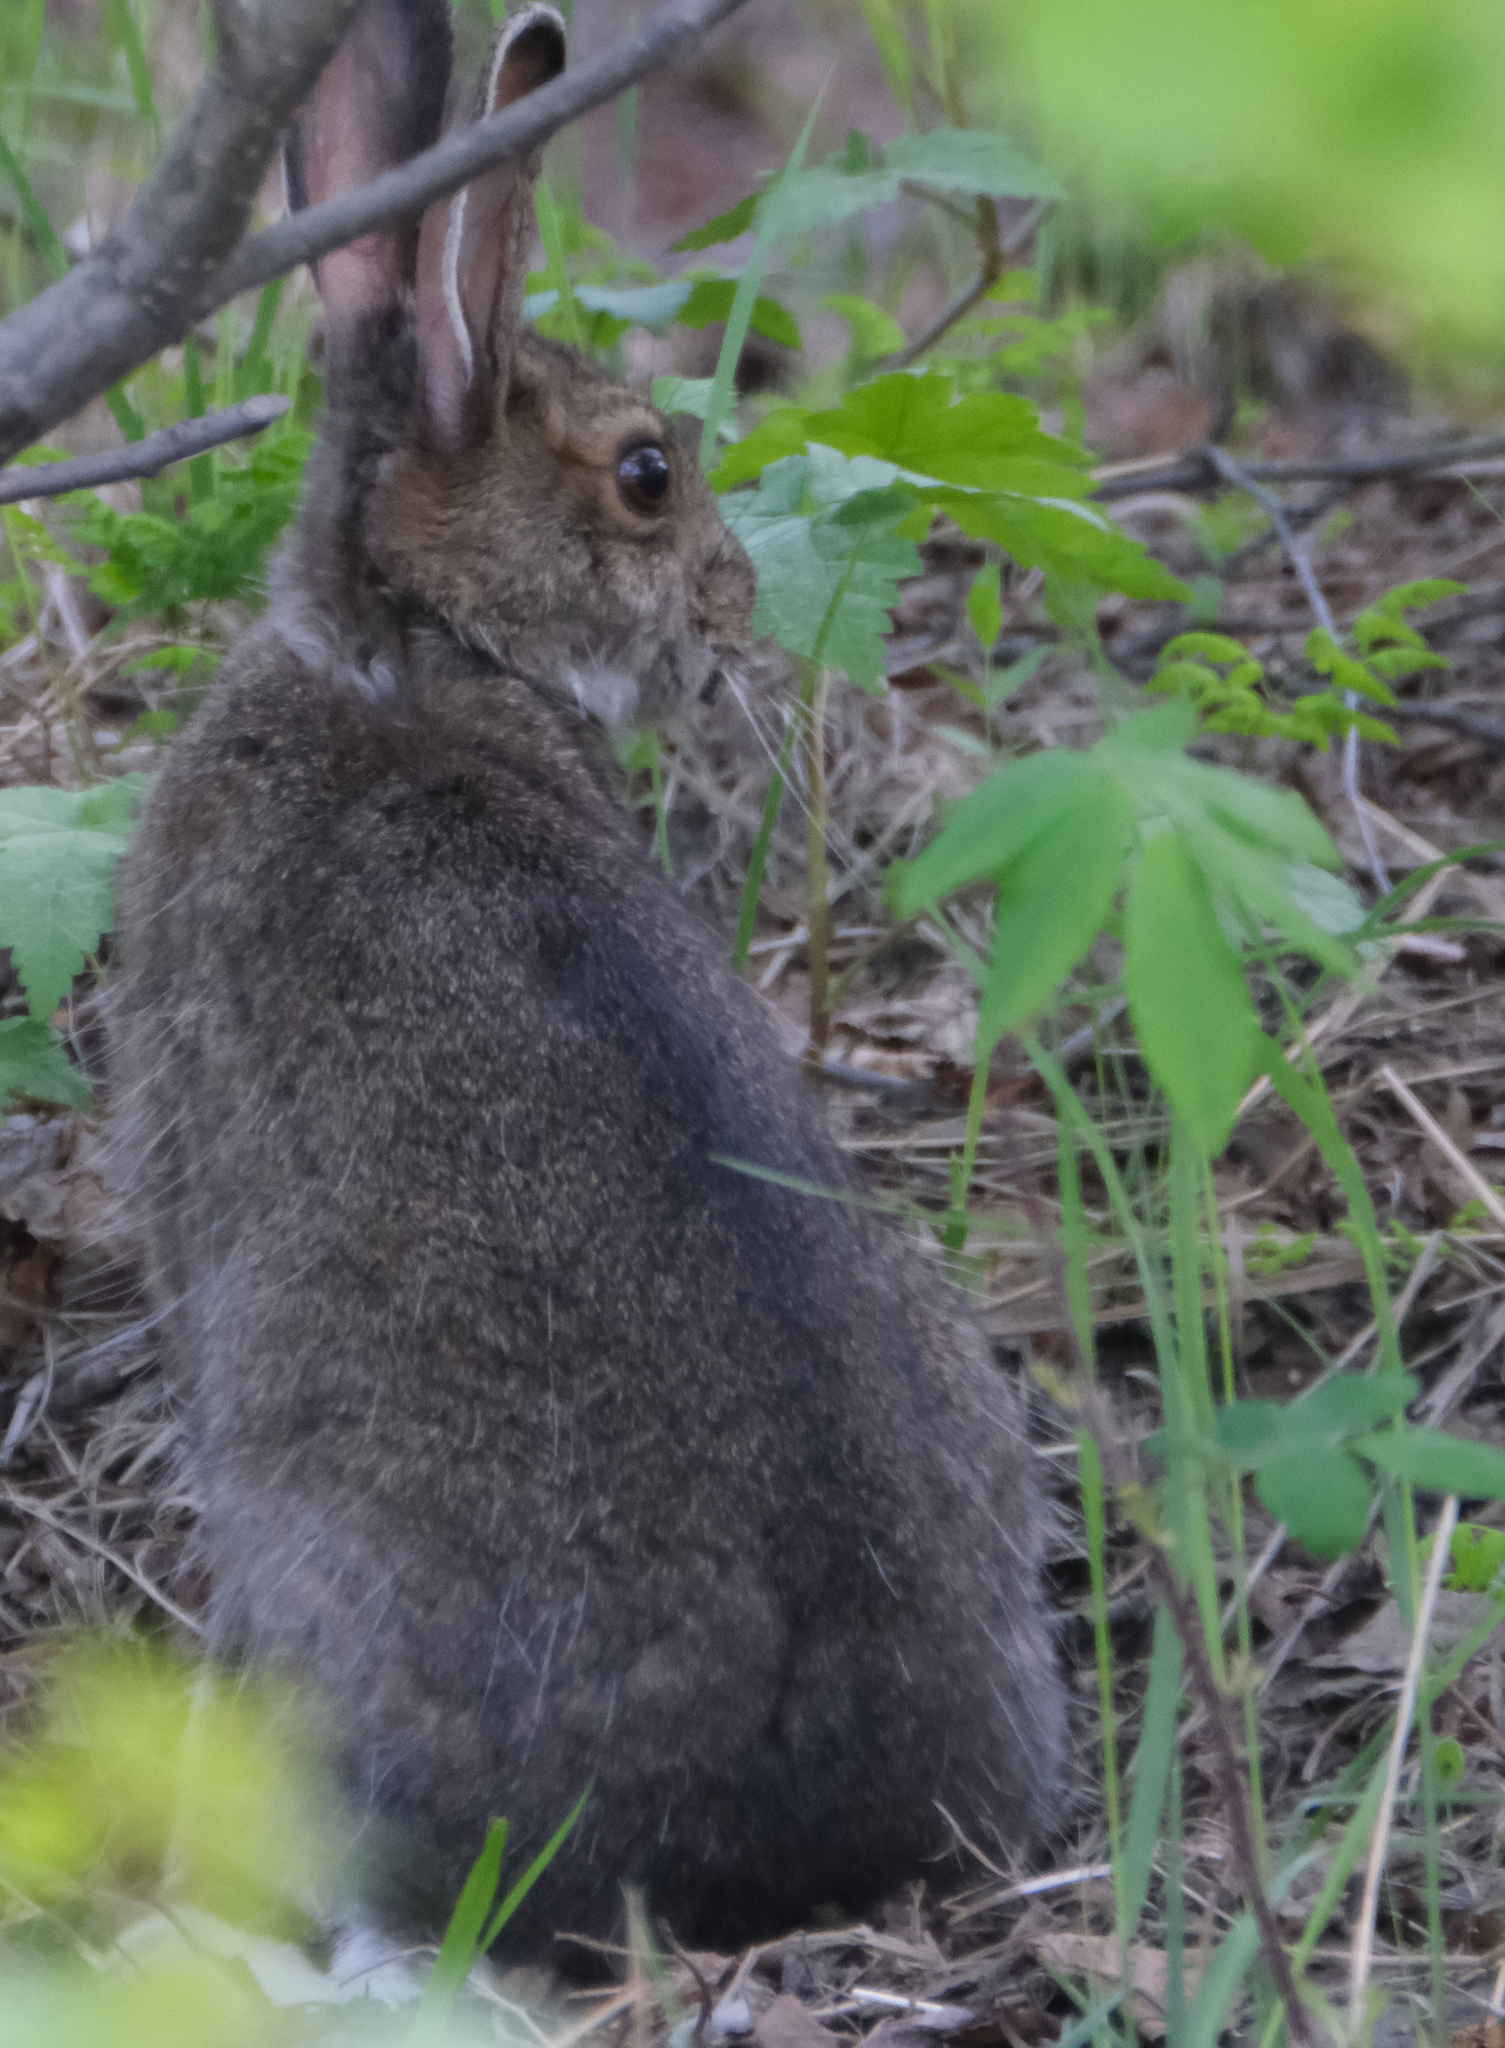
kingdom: Animalia
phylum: Chordata
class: Mammalia
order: Lagomorpha
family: Leporidae
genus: Lepus
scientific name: Lepus americanus
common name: Snowshoe hare
